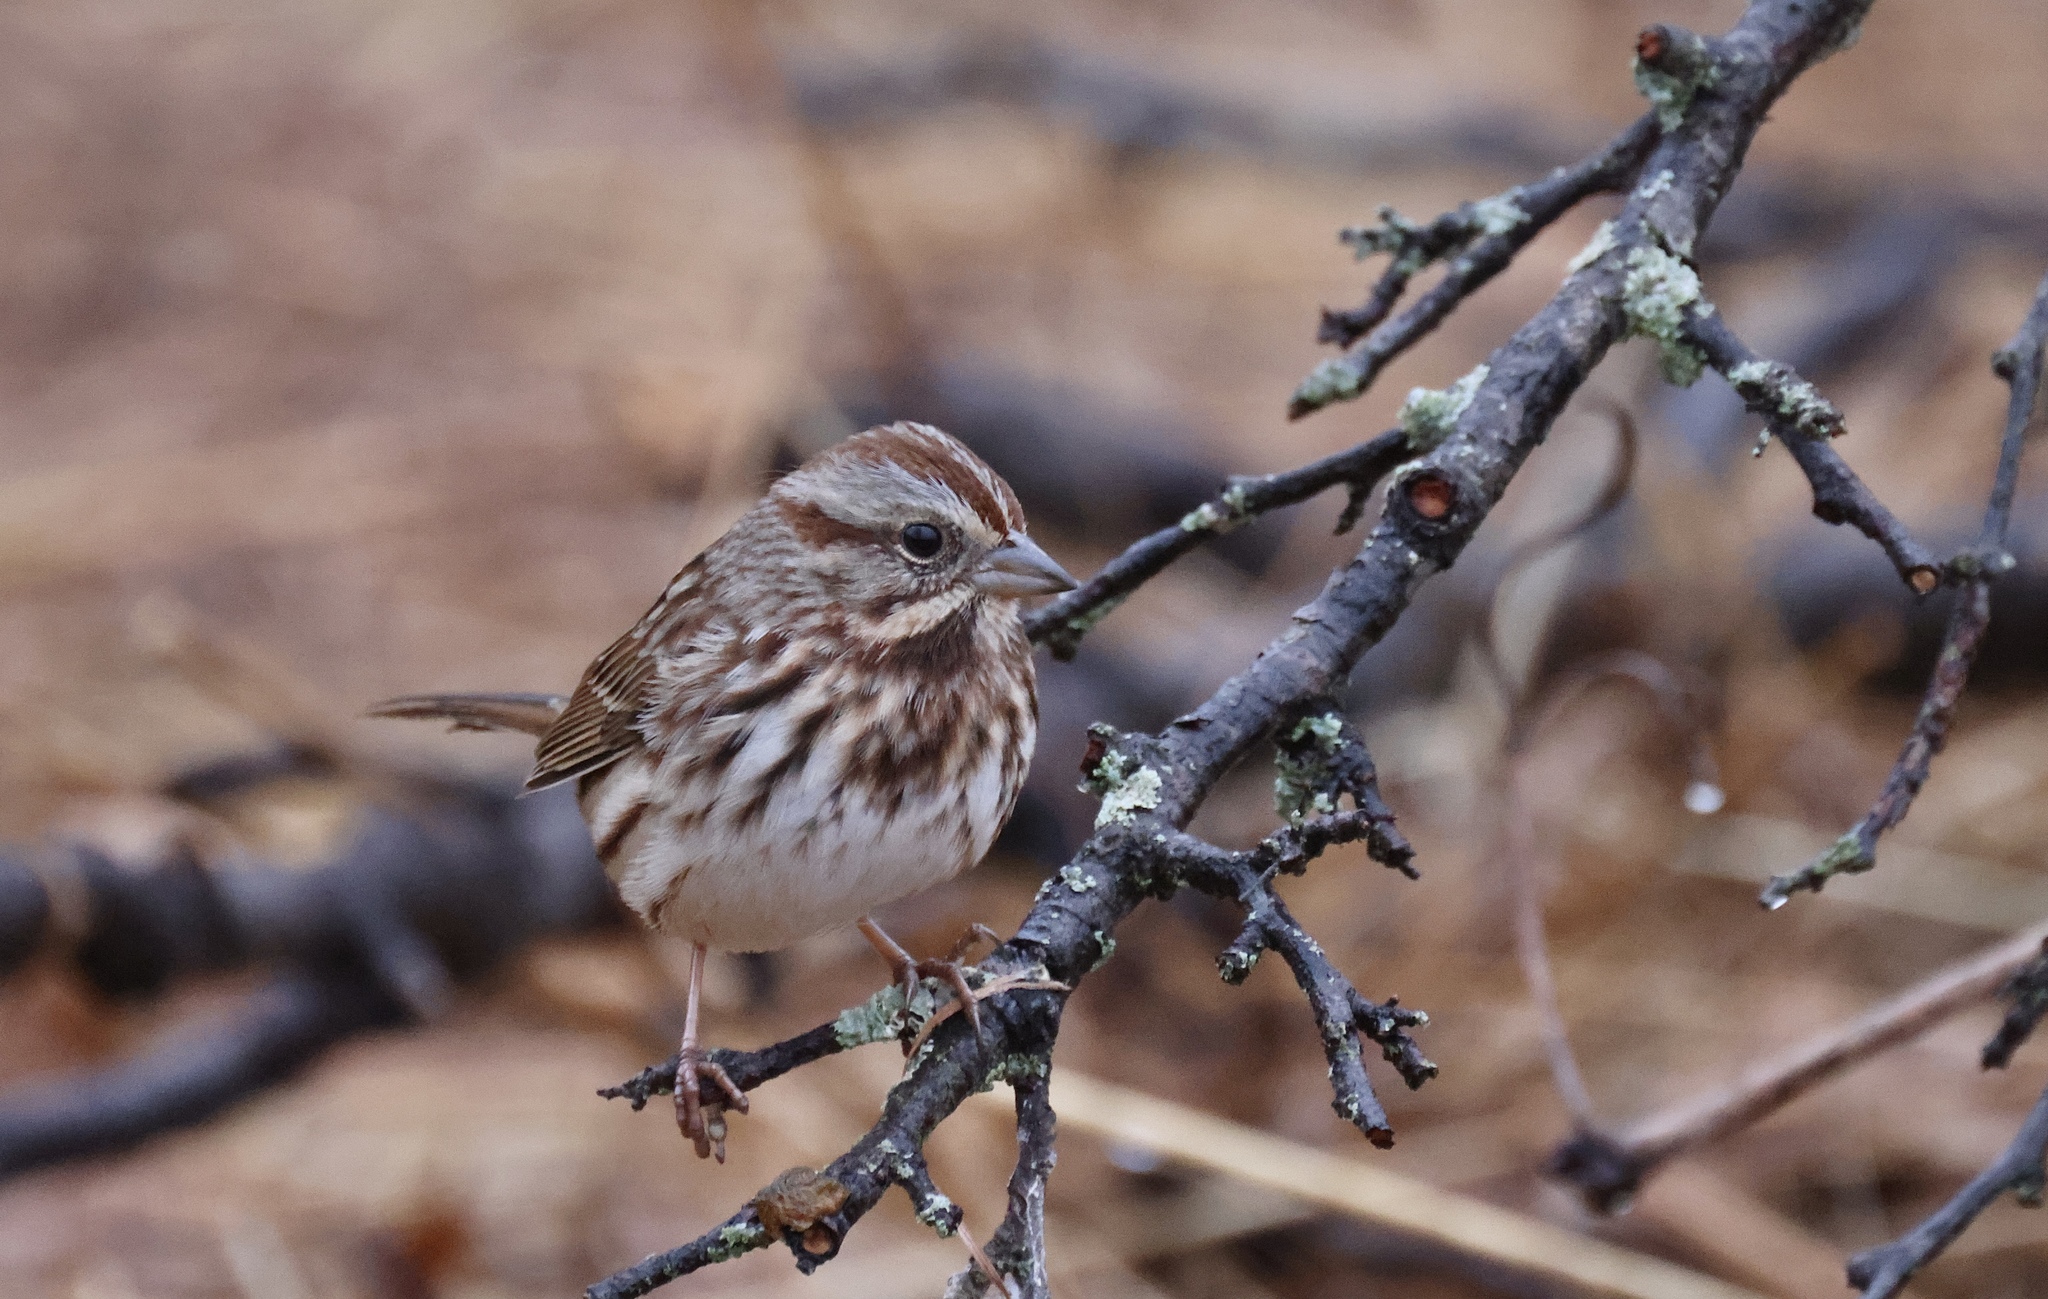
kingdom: Animalia
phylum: Chordata
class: Aves
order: Passeriformes
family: Passerellidae
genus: Melospiza
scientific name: Melospiza melodia
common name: Song sparrow
